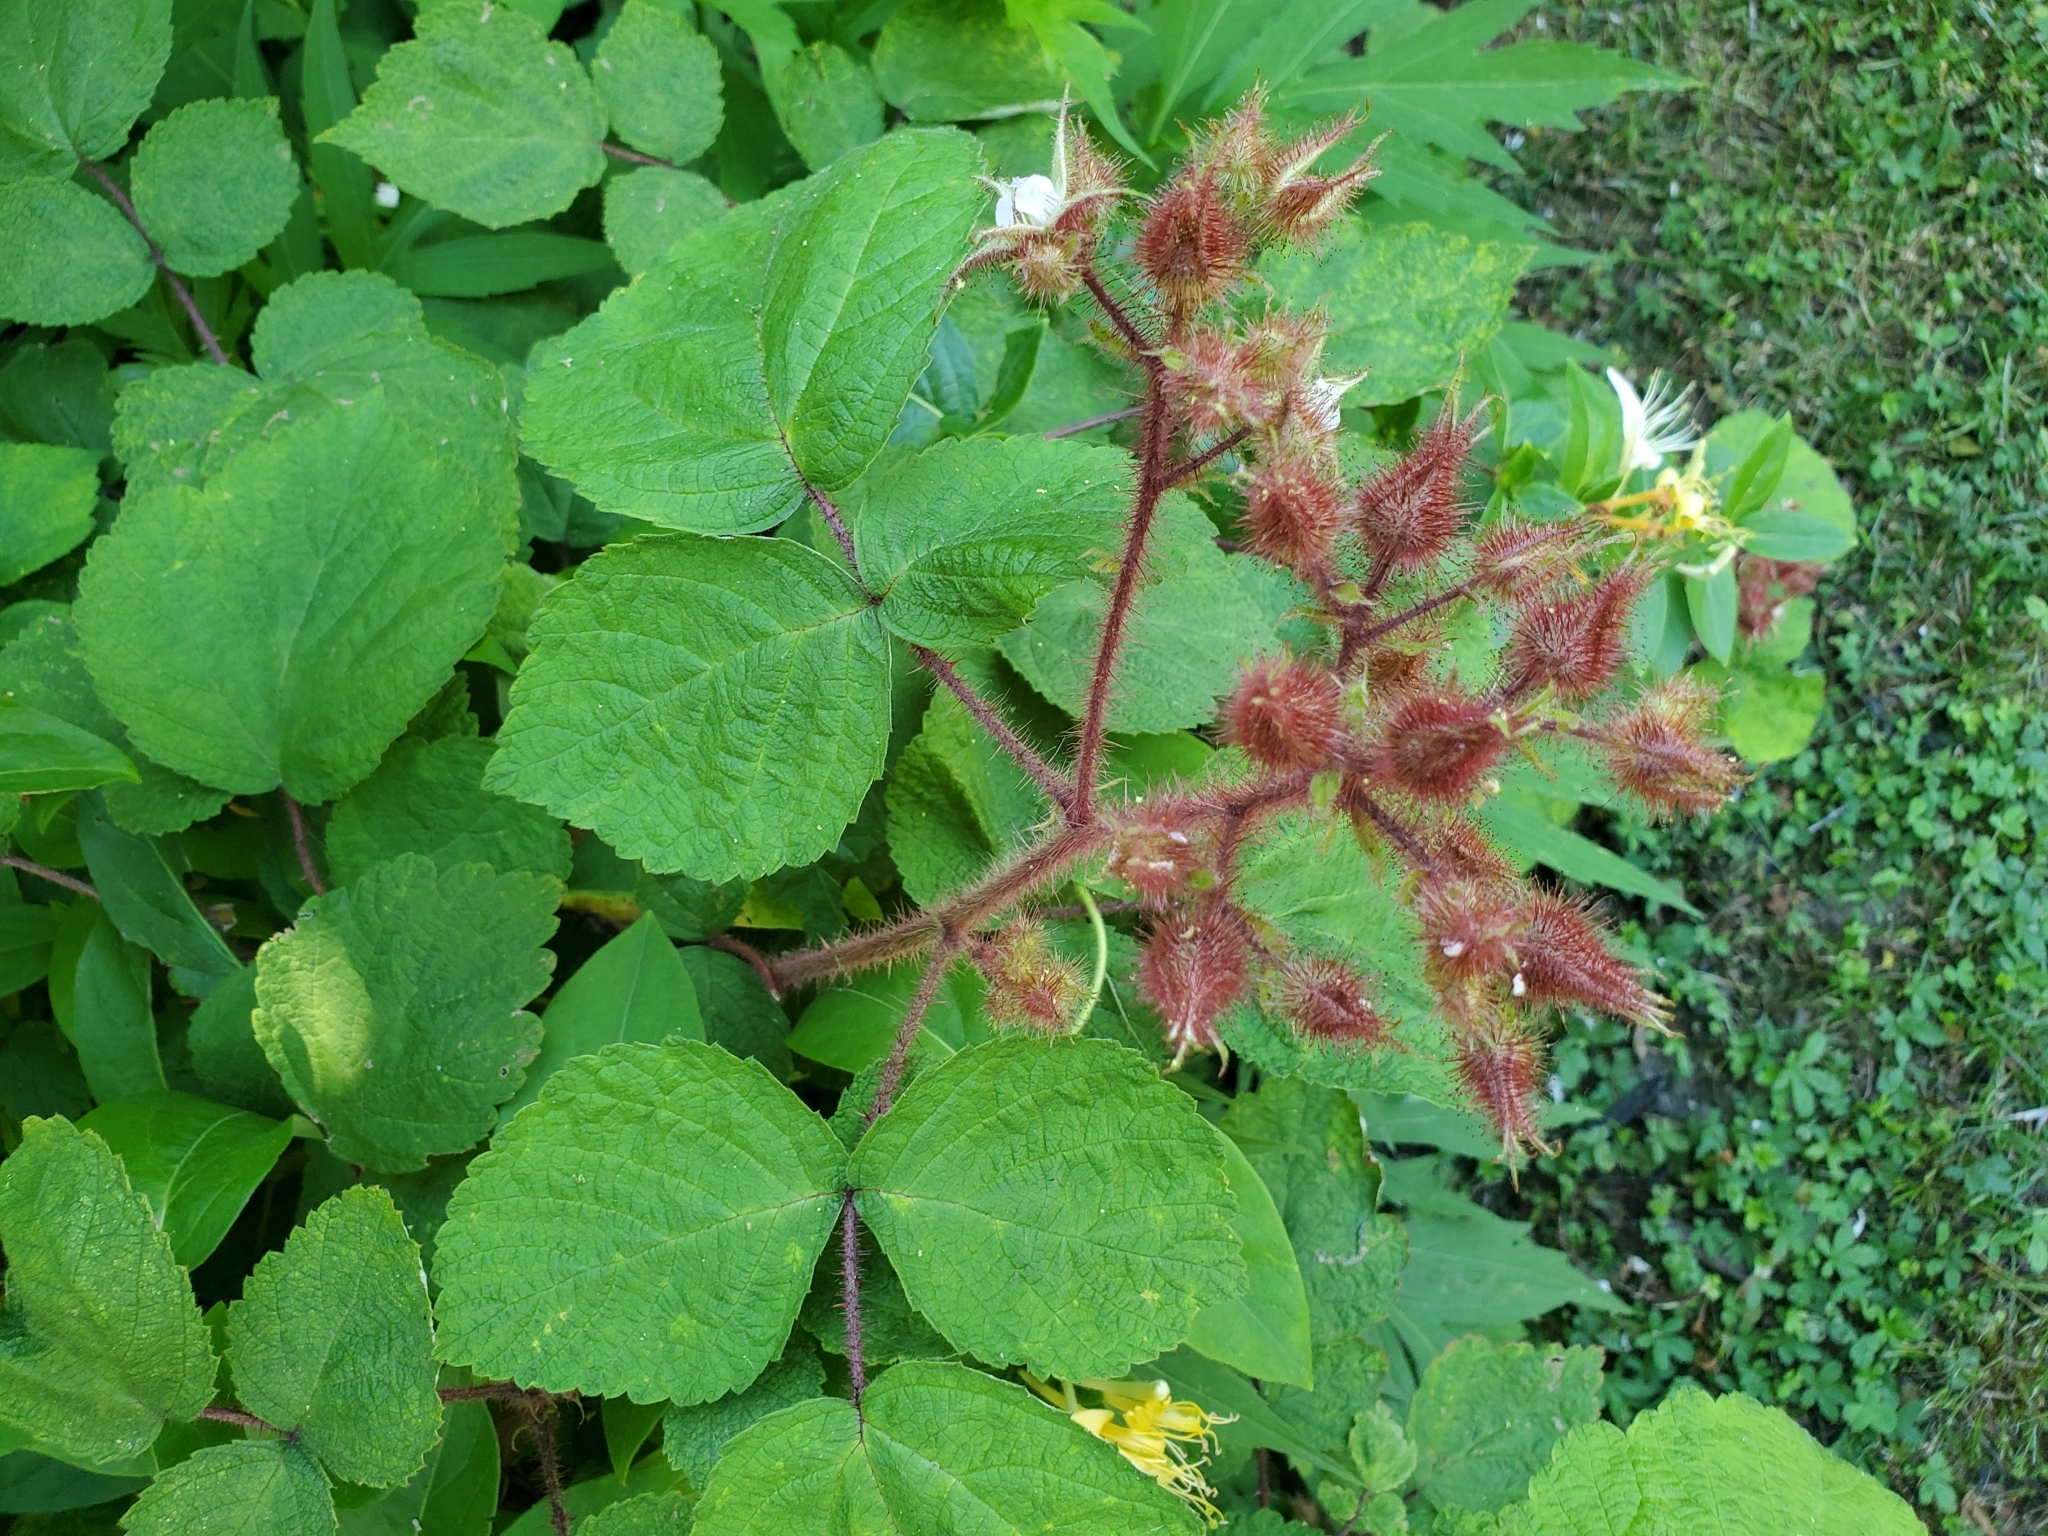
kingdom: Plantae
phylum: Tracheophyta
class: Magnoliopsida
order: Rosales
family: Rosaceae
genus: Rubus
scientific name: Rubus phoenicolasius
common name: Japanese wineberry
